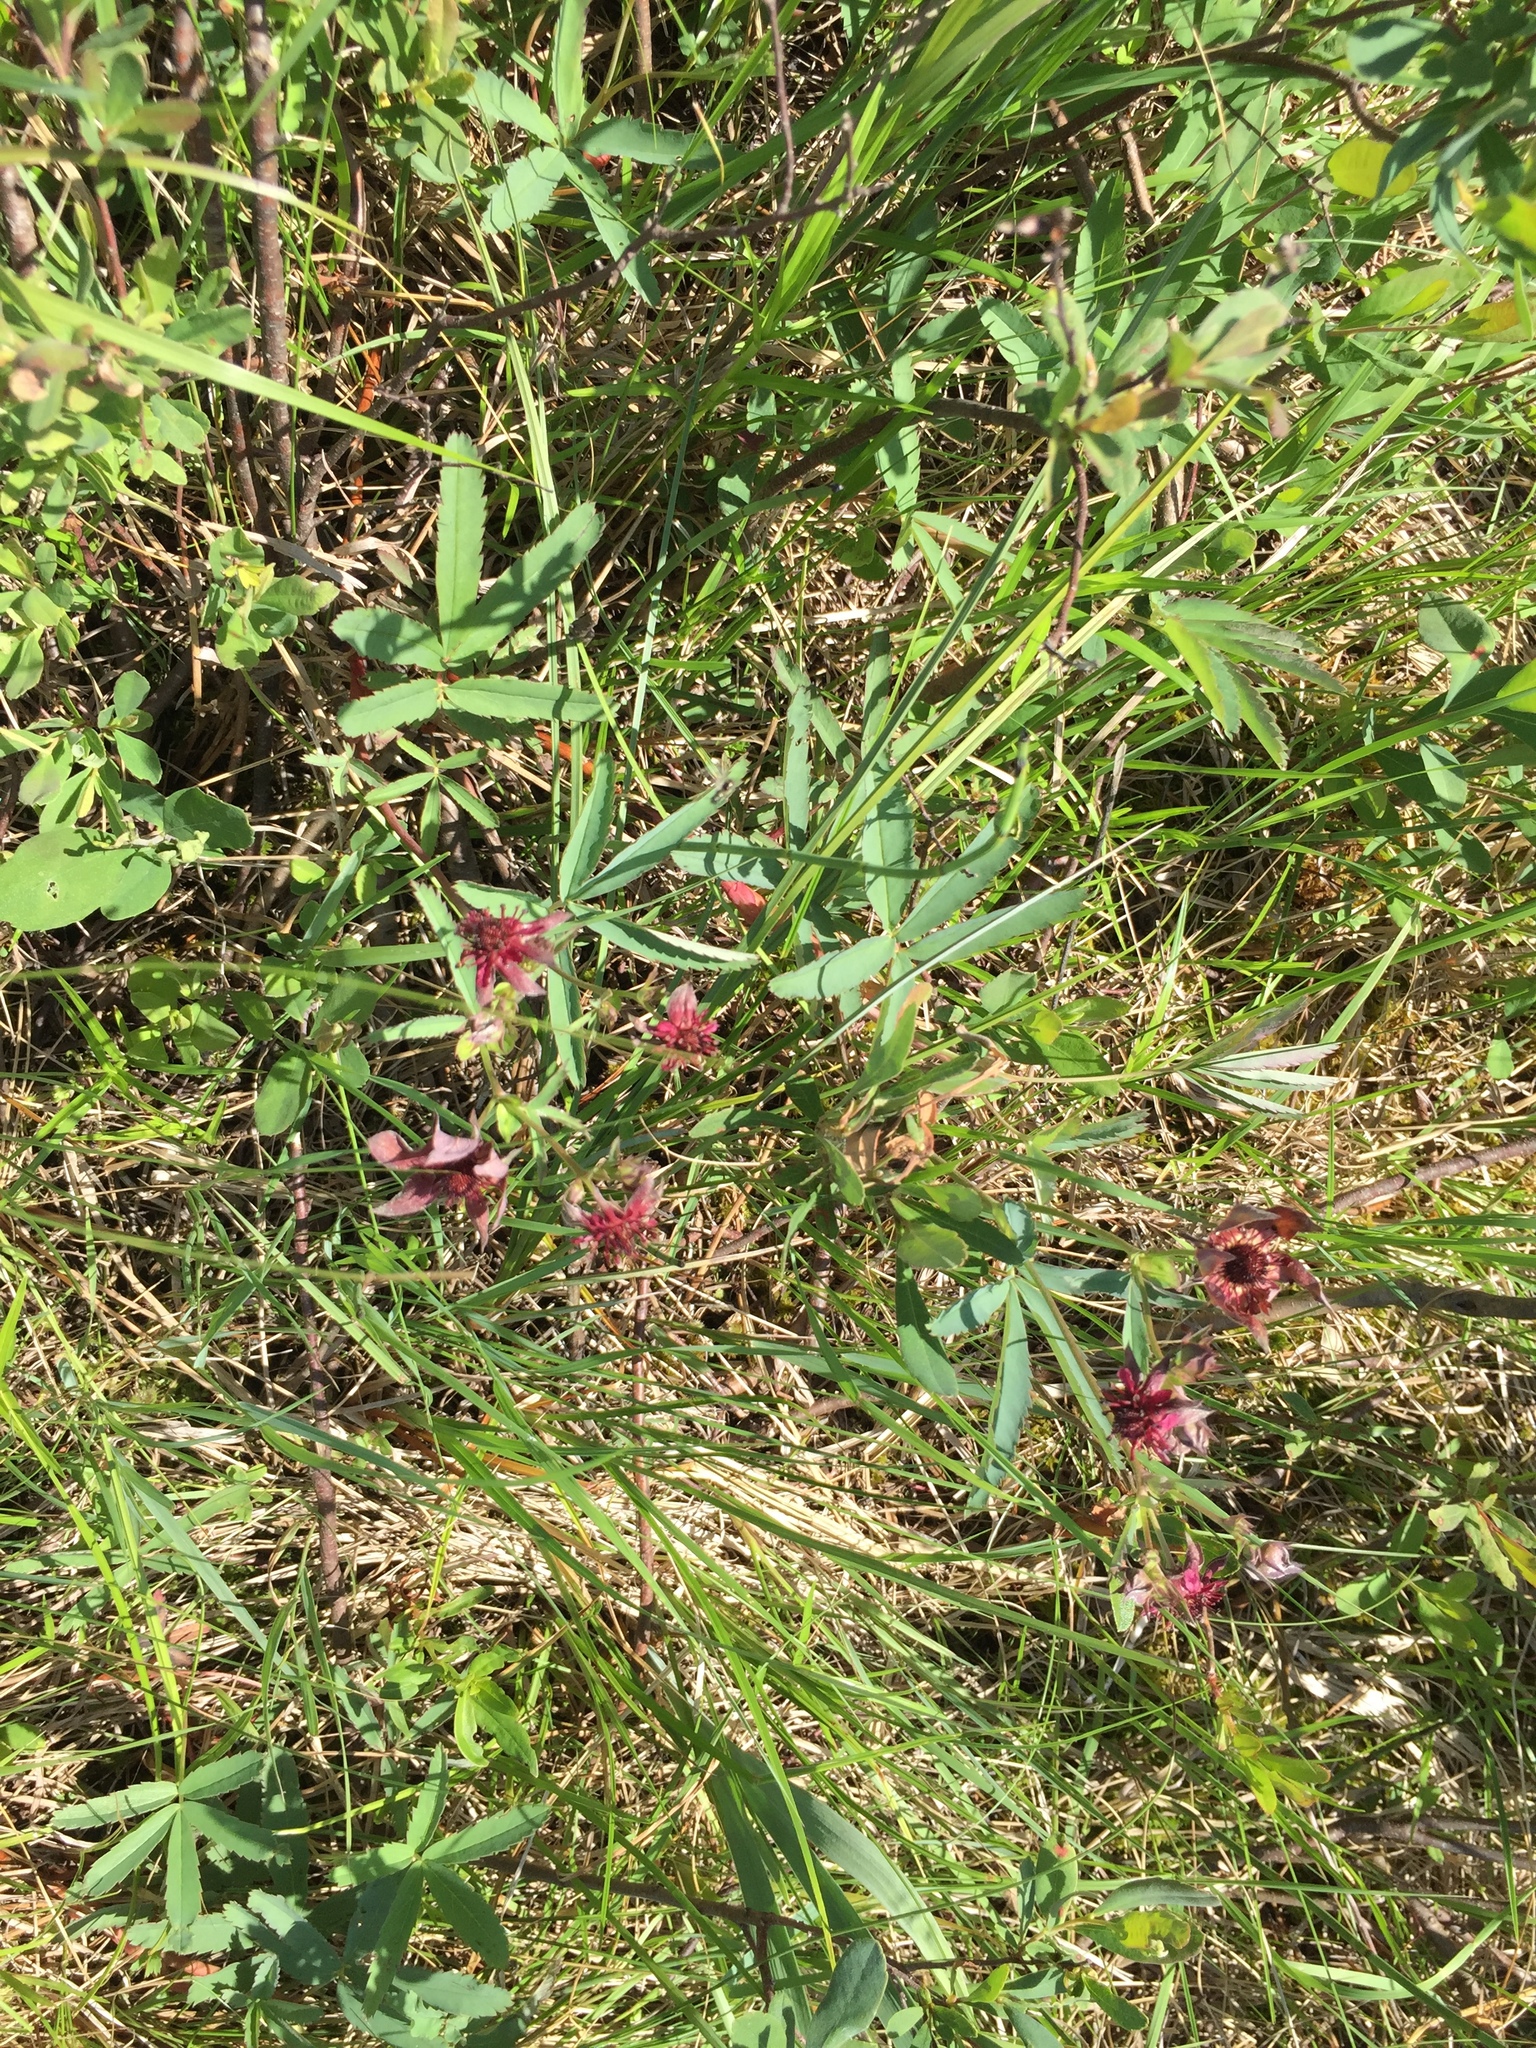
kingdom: Plantae
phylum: Tracheophyta
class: Magnoliopsida
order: Rosales
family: Rosaceae
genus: Comarum
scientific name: Comarum palustre
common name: Marsh cinquefoil
